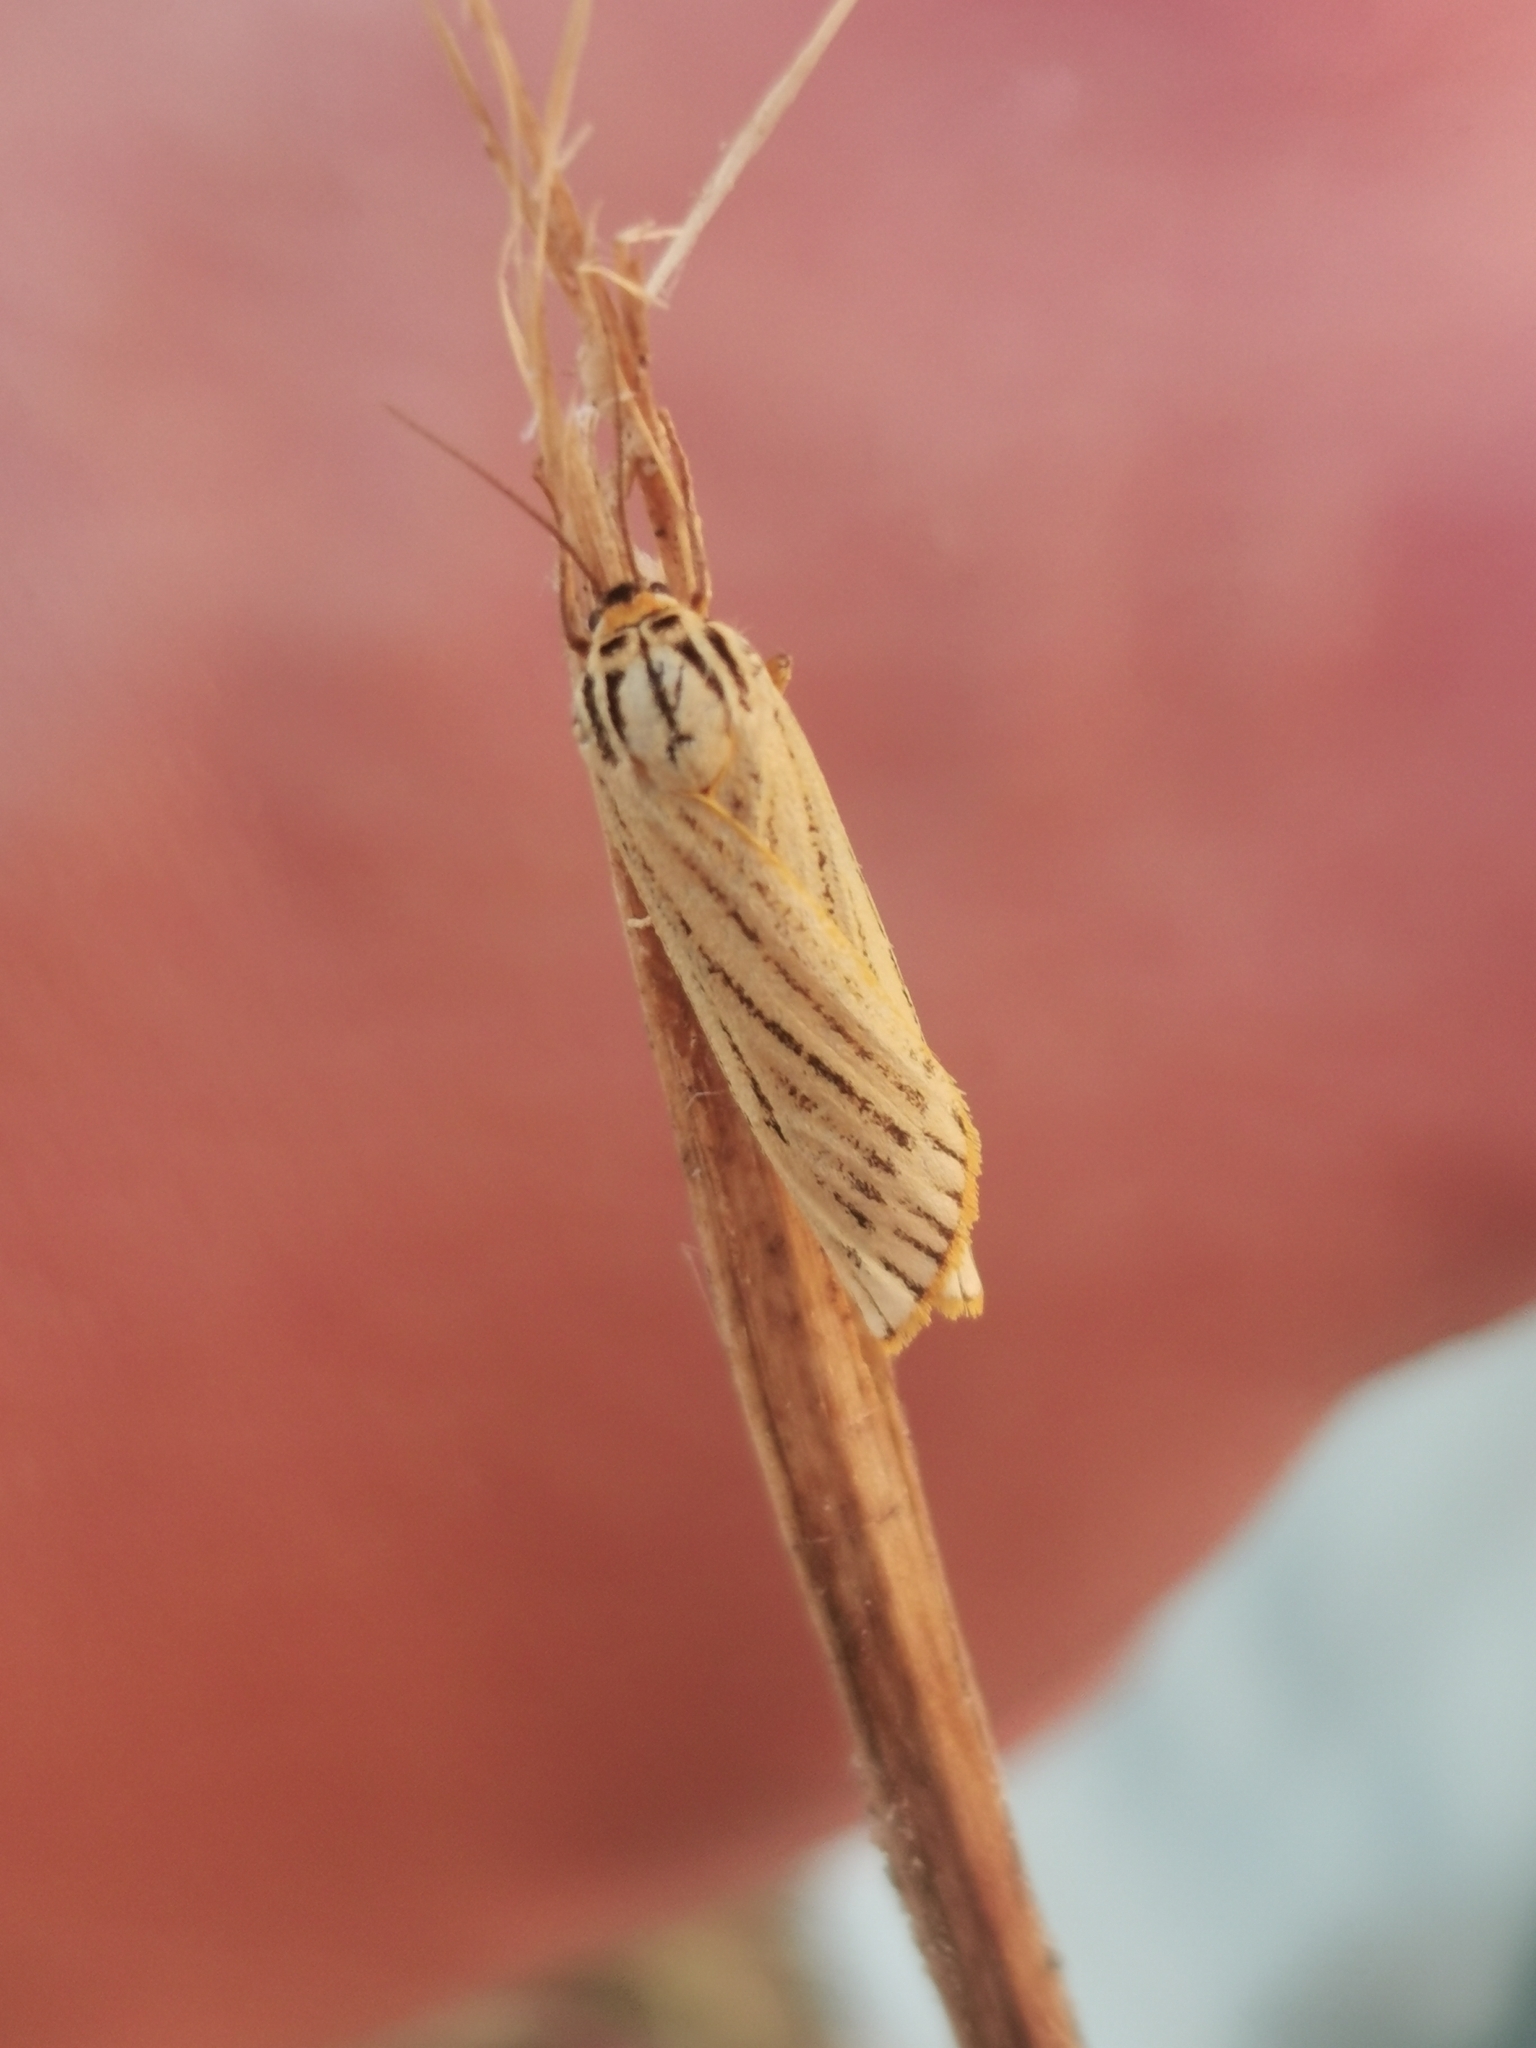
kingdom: Animalia
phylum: Arthropoda
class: Insecta
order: Lepidoptera
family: Erebidae
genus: Coscinia
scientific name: Coscinia Spiris striata
